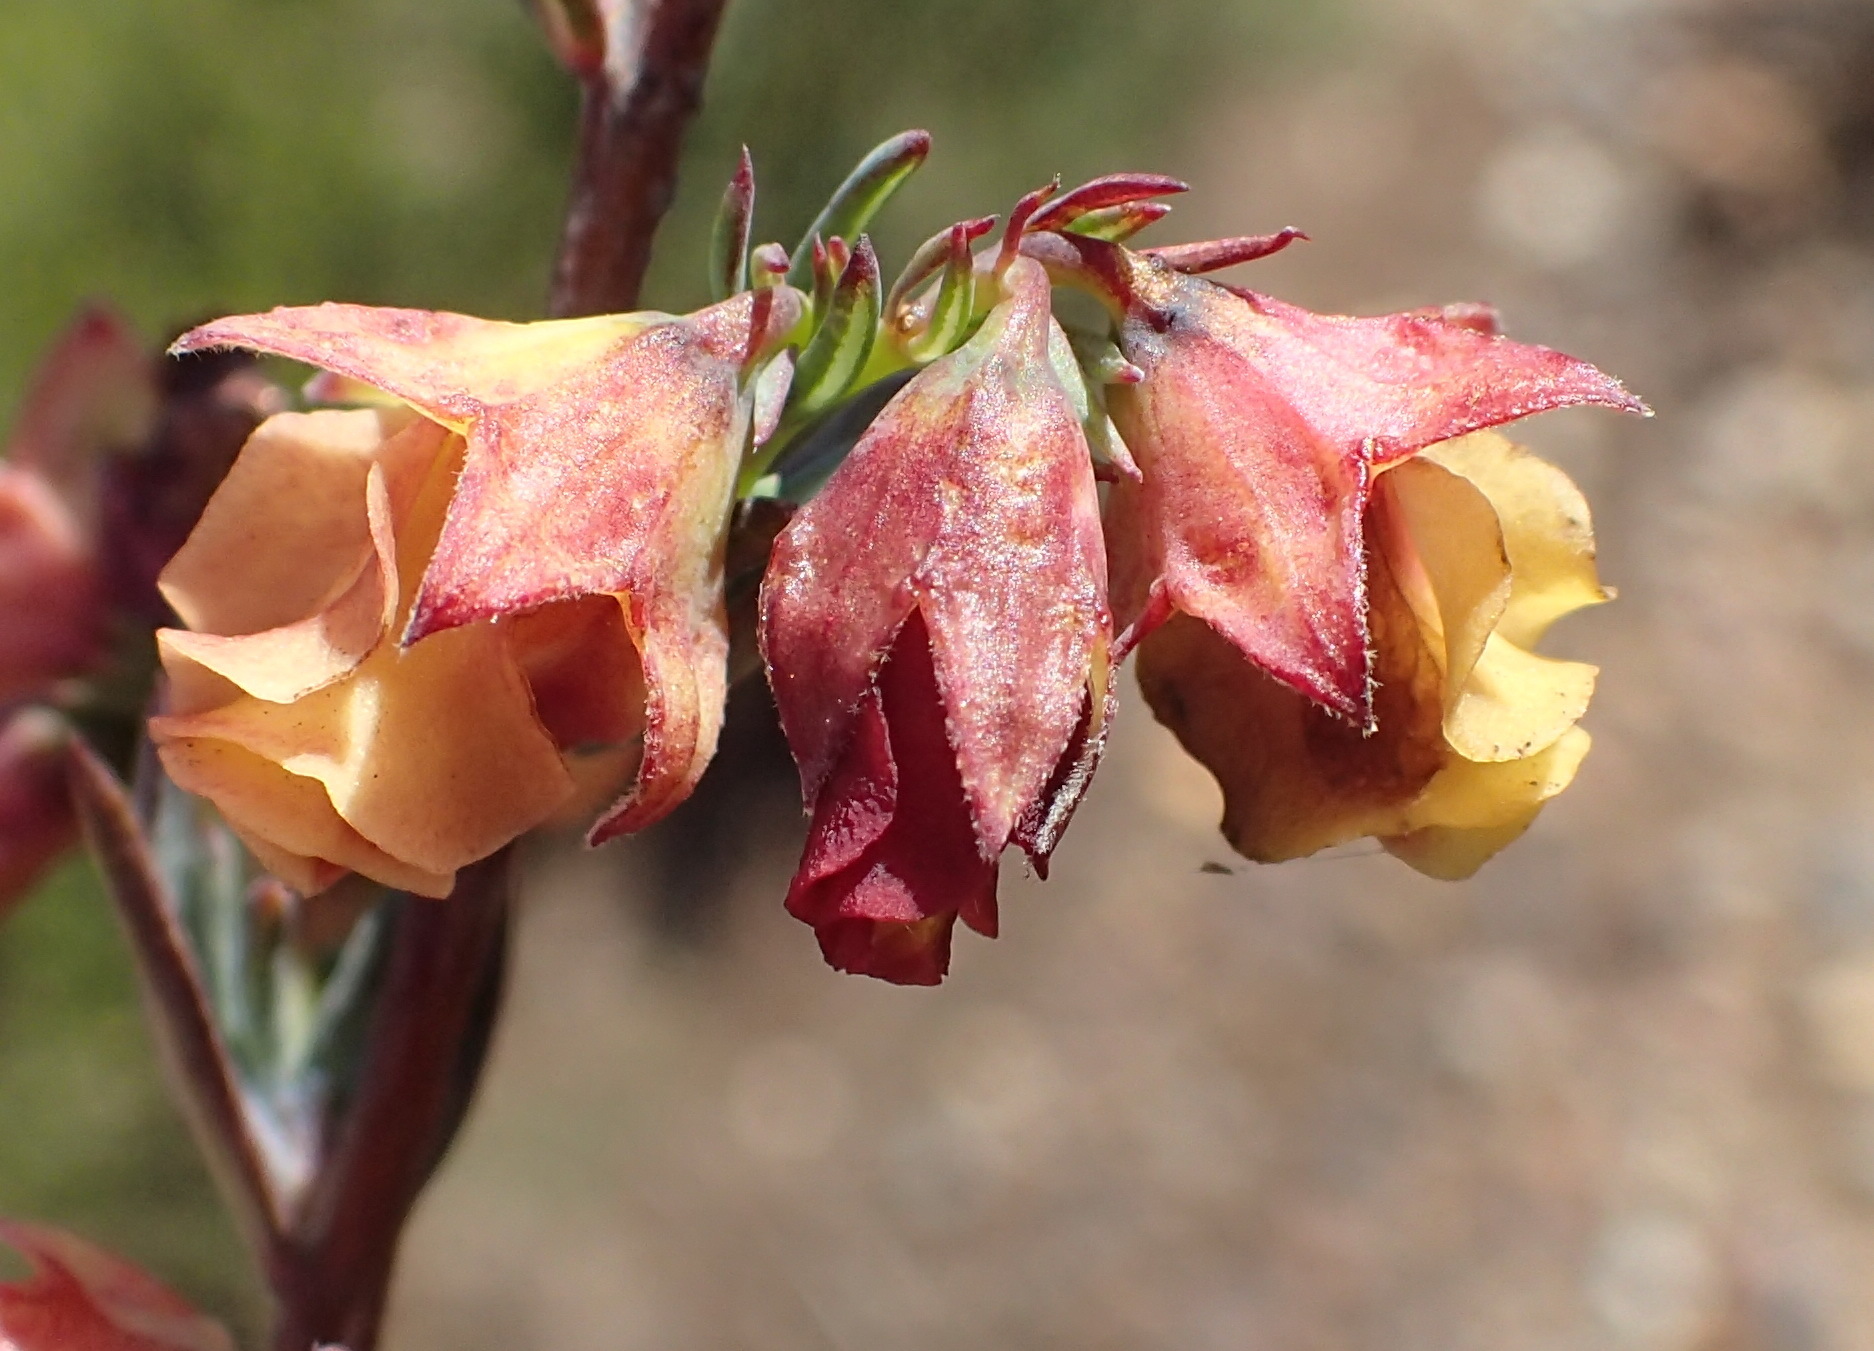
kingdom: Plantae
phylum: Tracheophyta
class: Magnoliopsida
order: Malvales
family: Malvaceae
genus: Hermannia
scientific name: Hermannia filifolia
